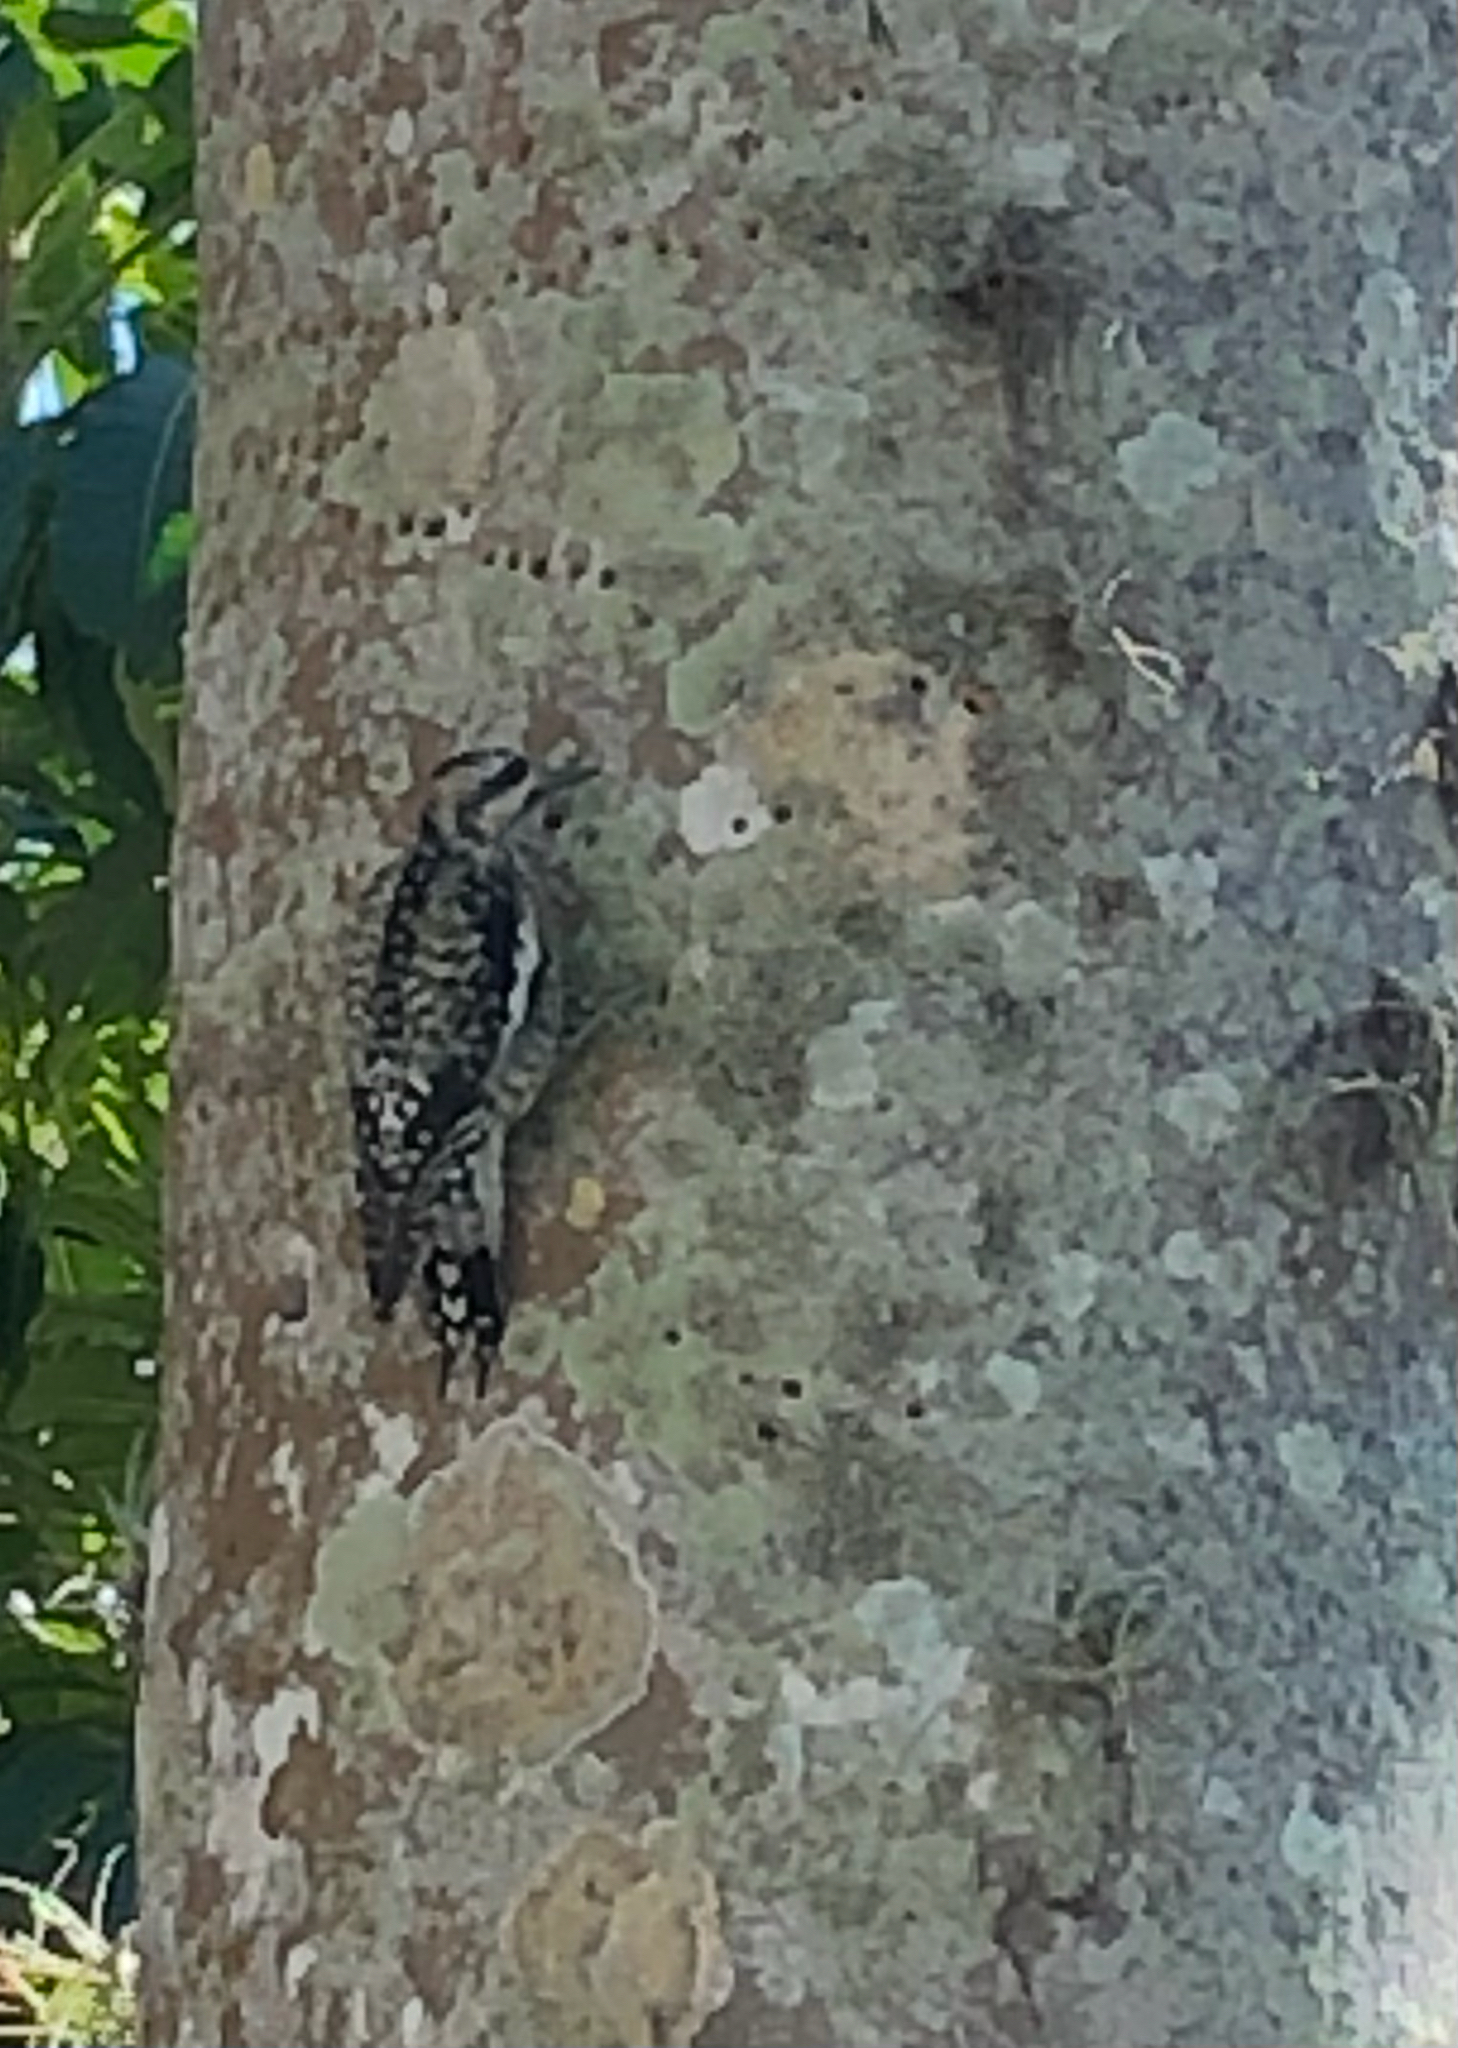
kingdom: Animalia
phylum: Chordata
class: Aves
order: Piciformes
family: Picidae
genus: Sphyrapicus
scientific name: Sphyrapicus varius
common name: Yellow-bellied sapsucker
